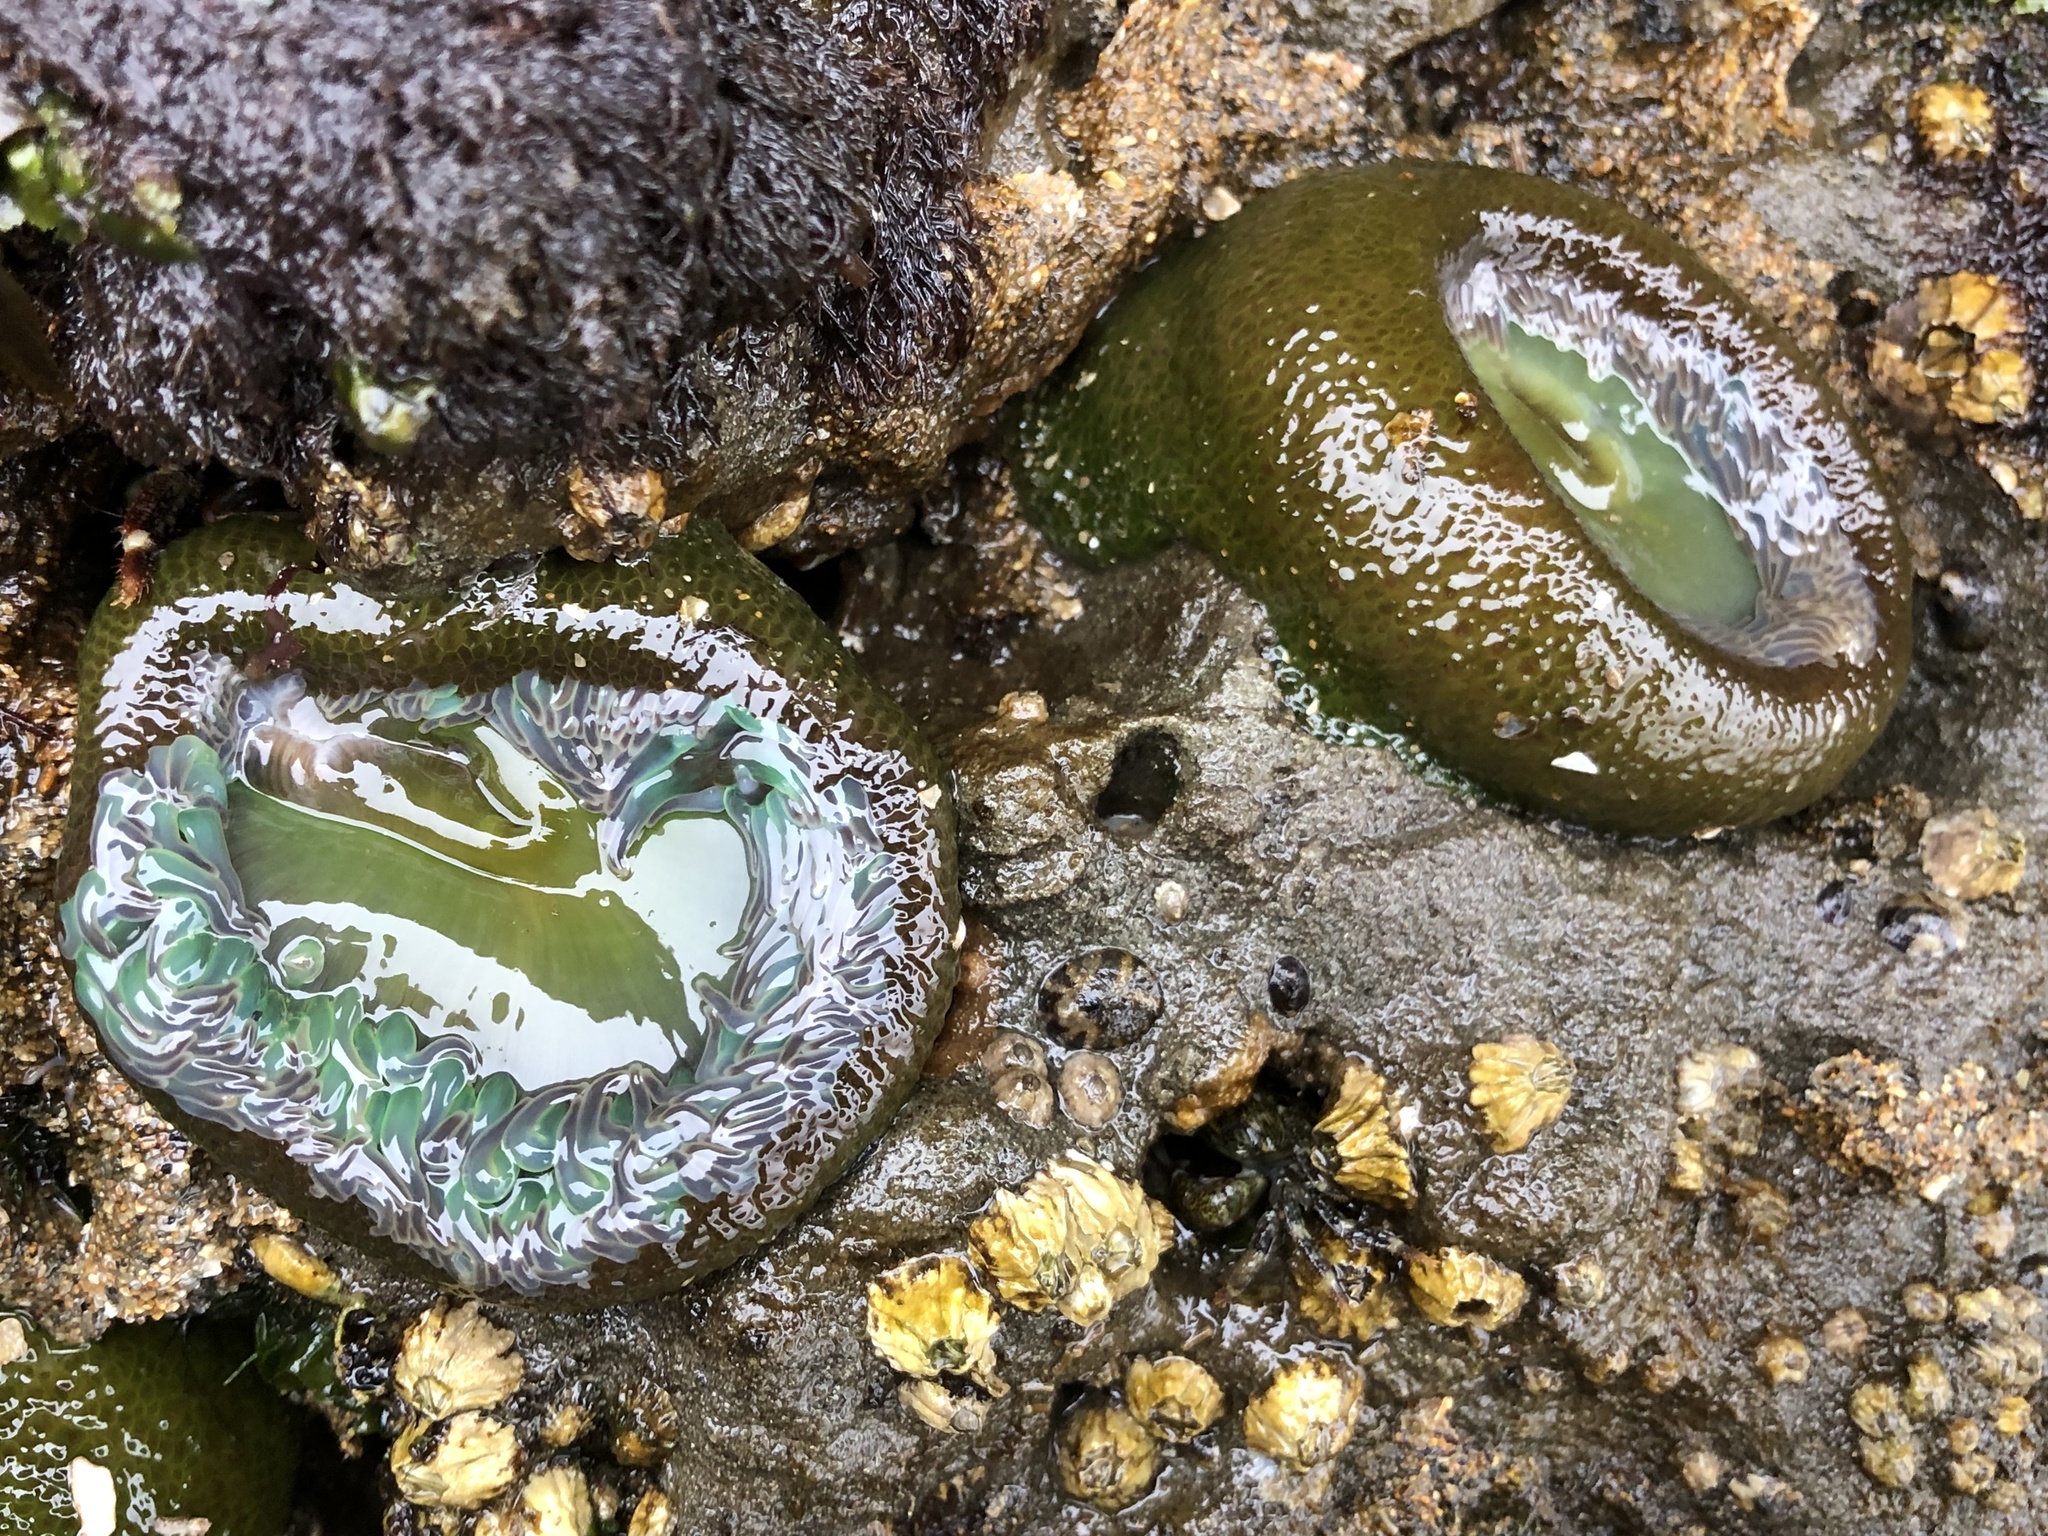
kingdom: Animalia
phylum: Cnidaria
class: Anthozoa
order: Actiniaria
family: Actiniidae
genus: Anthopleura
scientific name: Anthopleura xanthogrammica
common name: Giant green anemone
